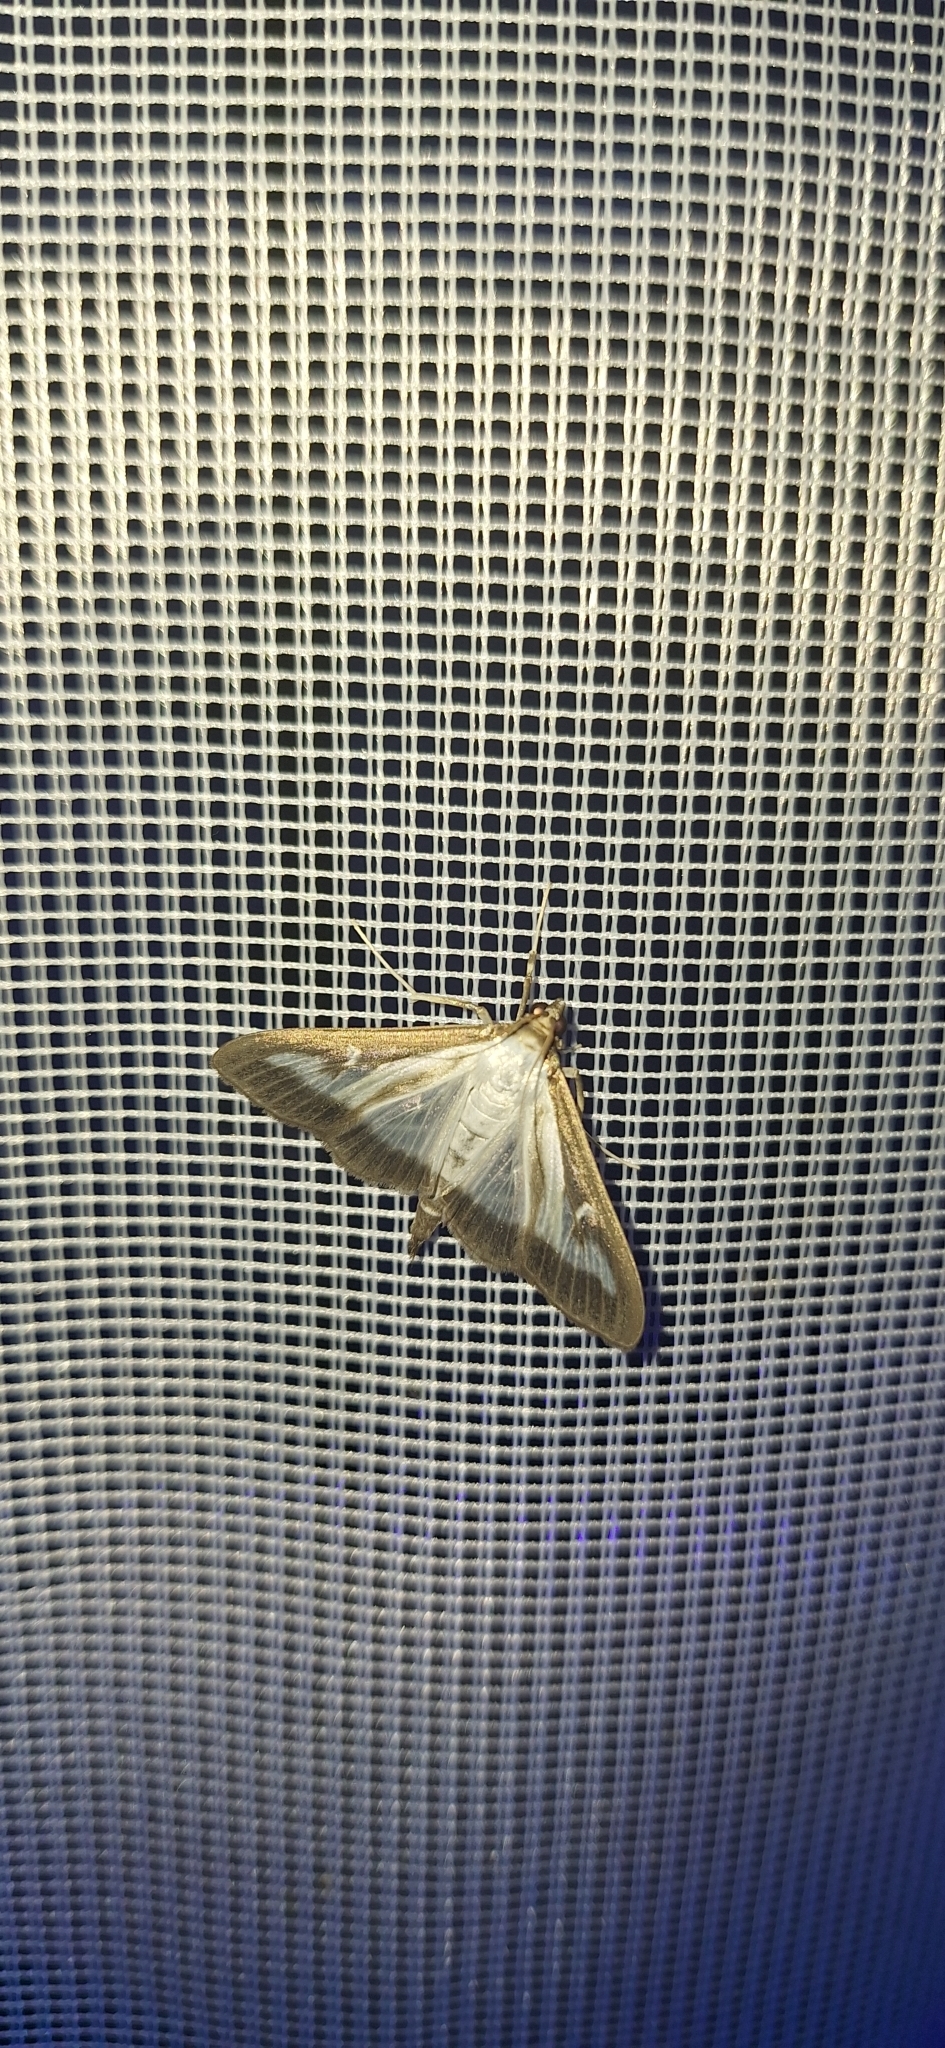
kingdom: Animalia
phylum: Arthropoda
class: Insecta
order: Lepidoptera
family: Crambidae
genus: Cydalima
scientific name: Cydalima perspectalis
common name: Box tree moth
